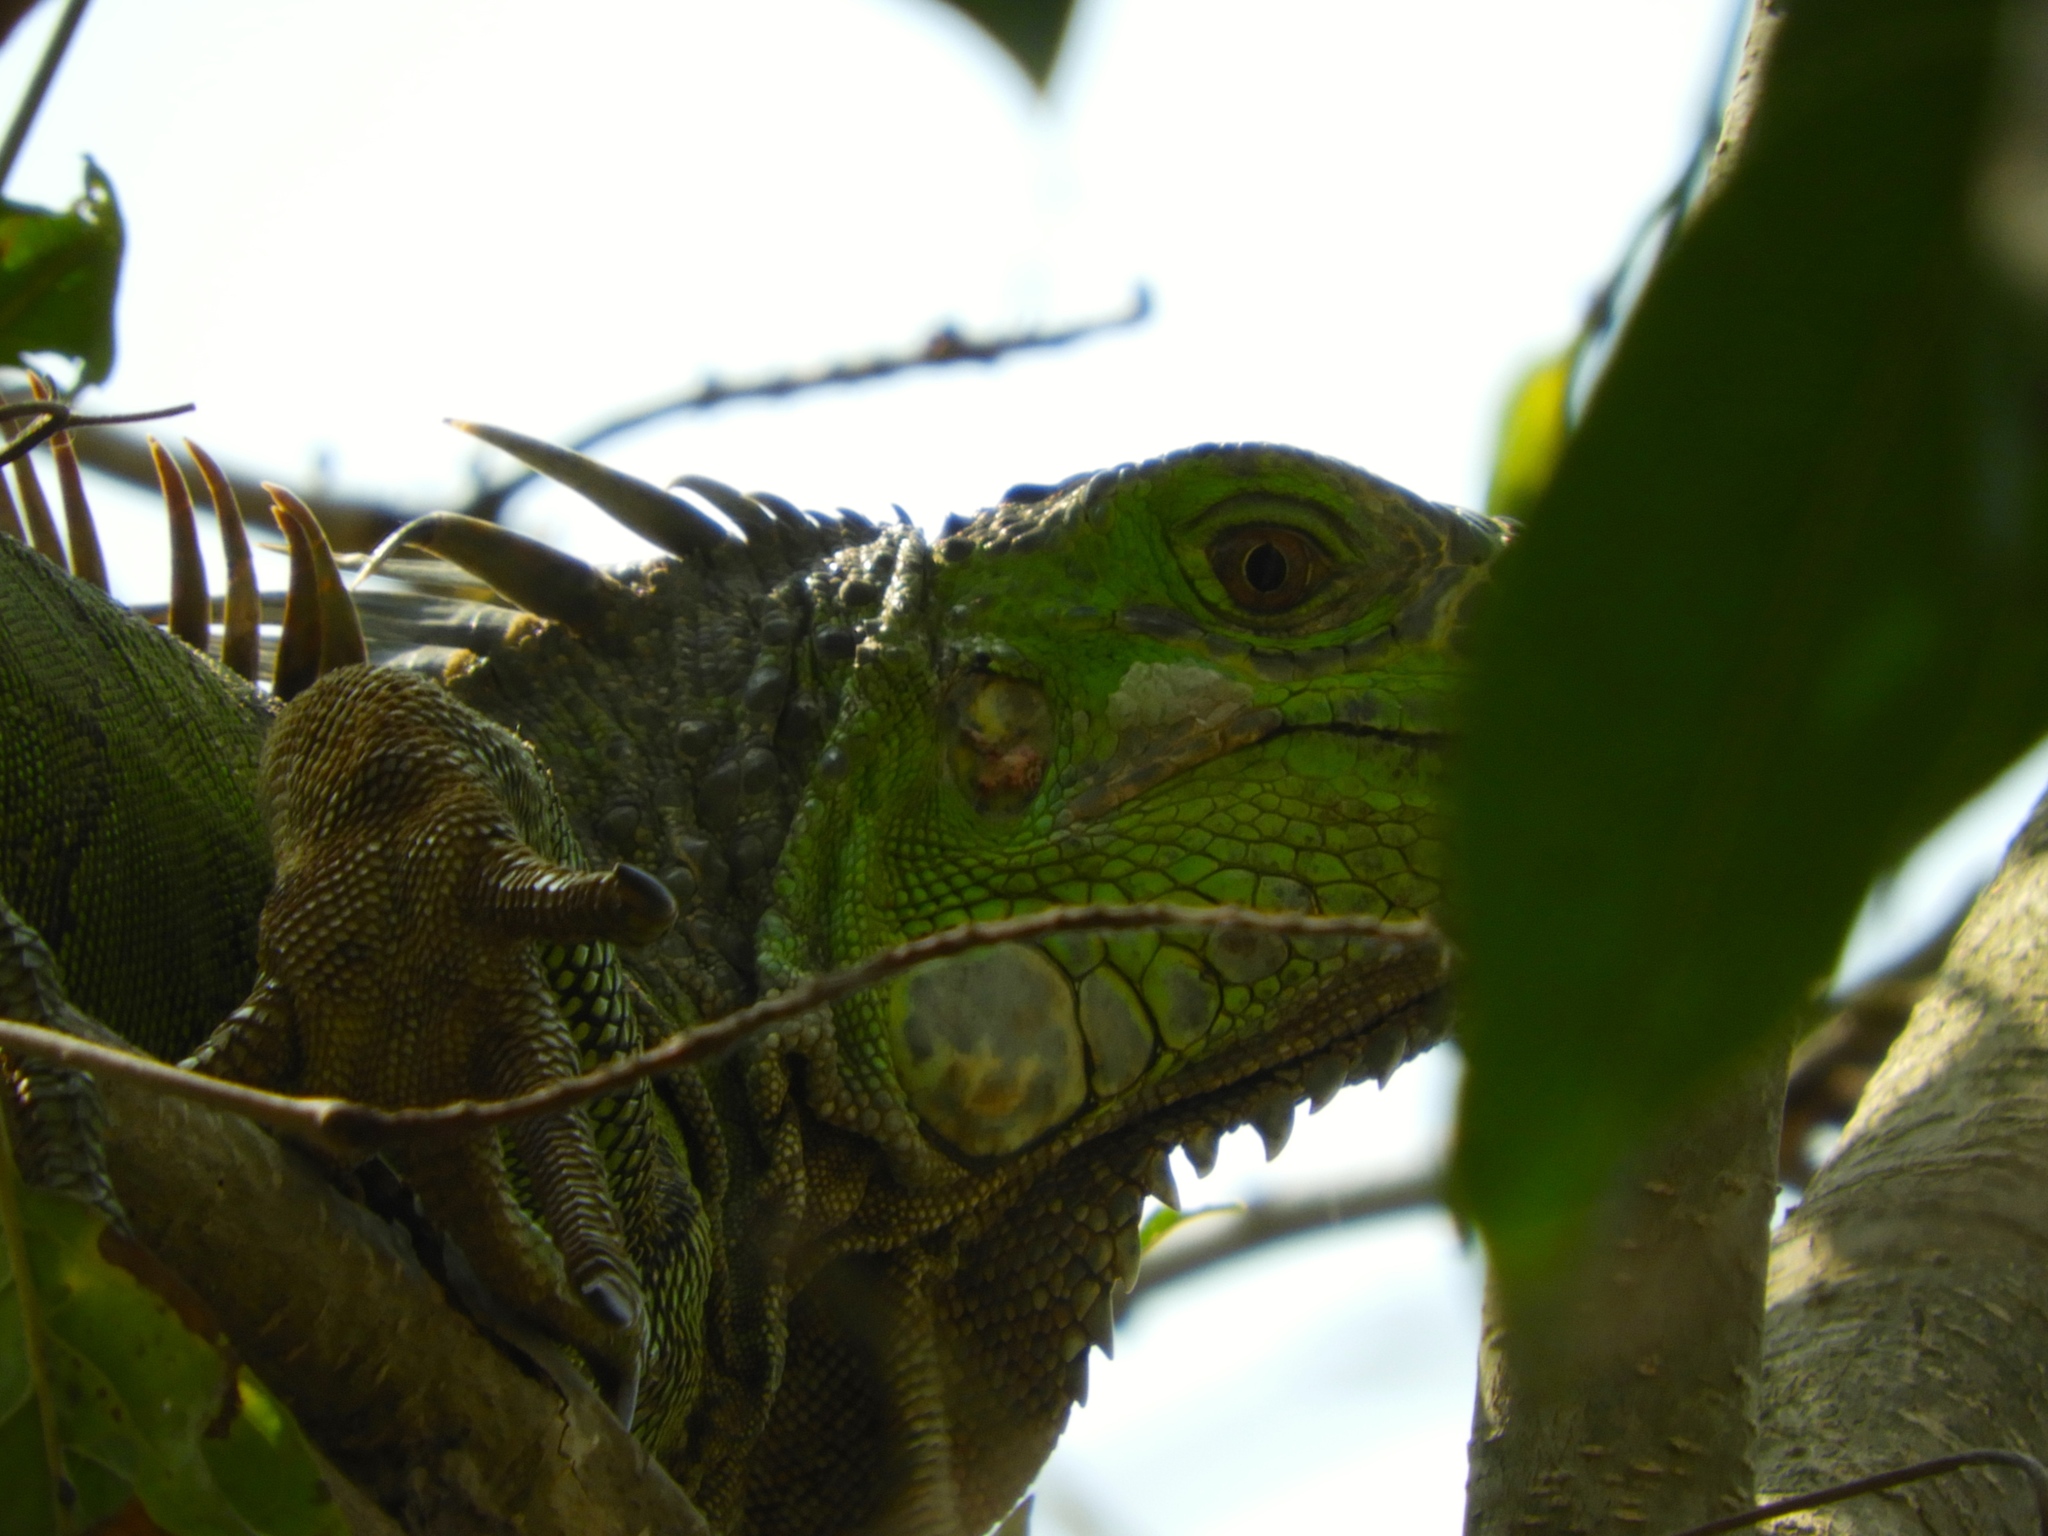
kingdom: Animalia
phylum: Chordata
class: Squamata
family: Iguanidae
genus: Iguana
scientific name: Iguana iguana
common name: Green iguana
